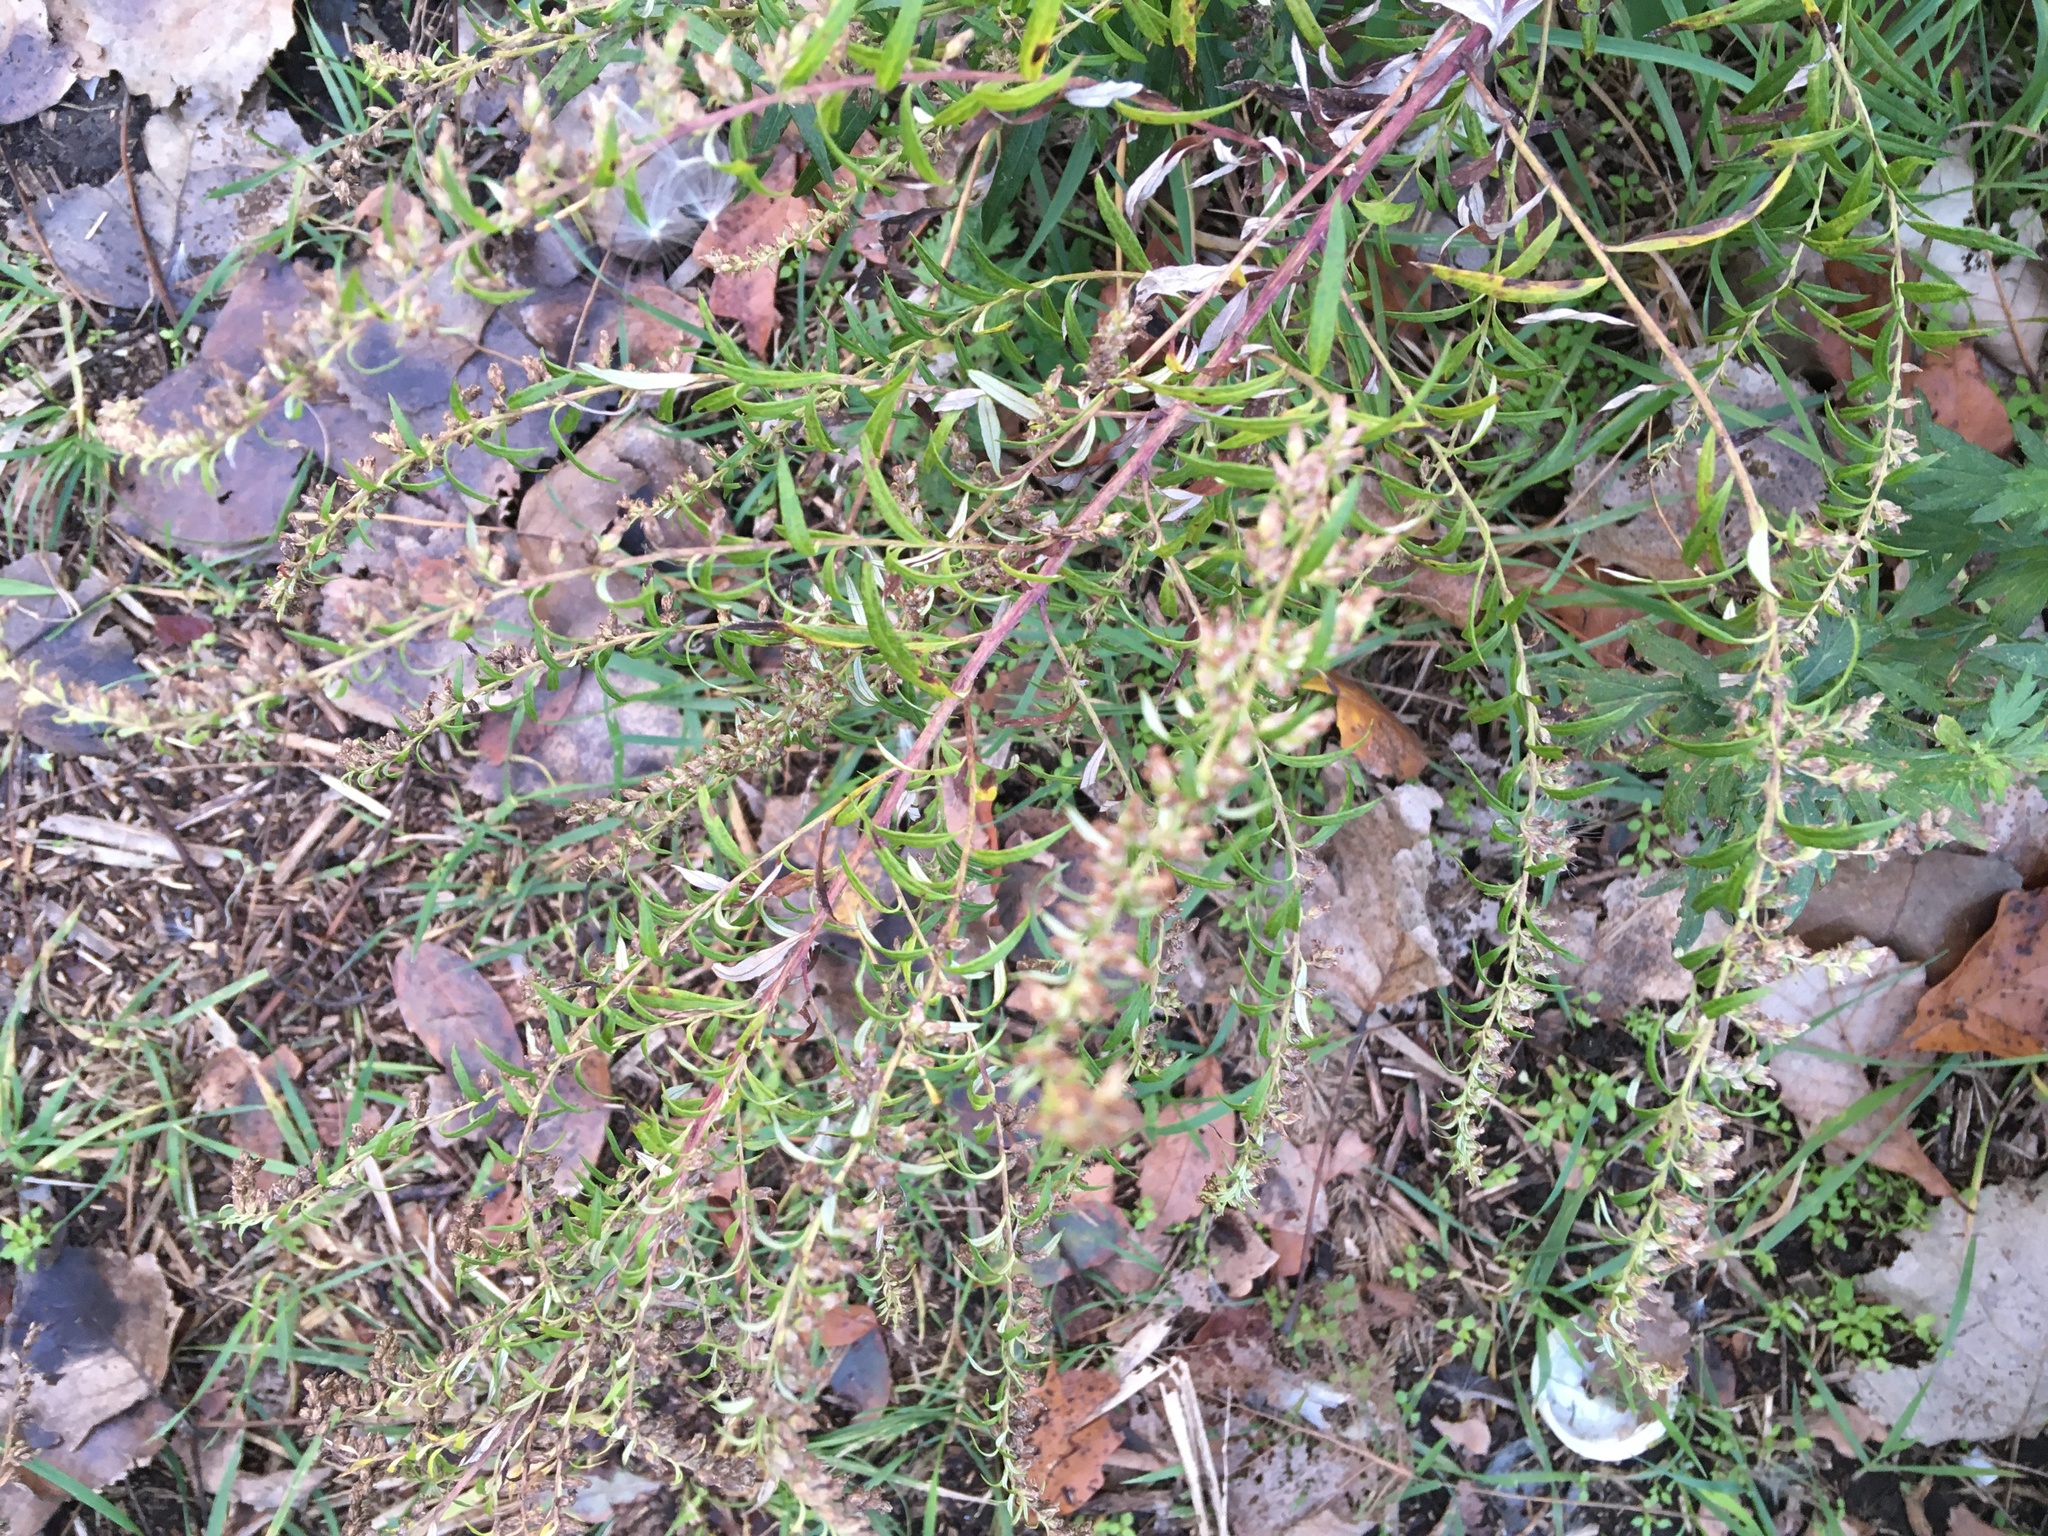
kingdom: Plantae
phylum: Tracheophyta
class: Magnoliopsida
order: Asterales
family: Asteraceae
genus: Artemisia
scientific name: Artemisia vulgaris
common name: Mugwort
